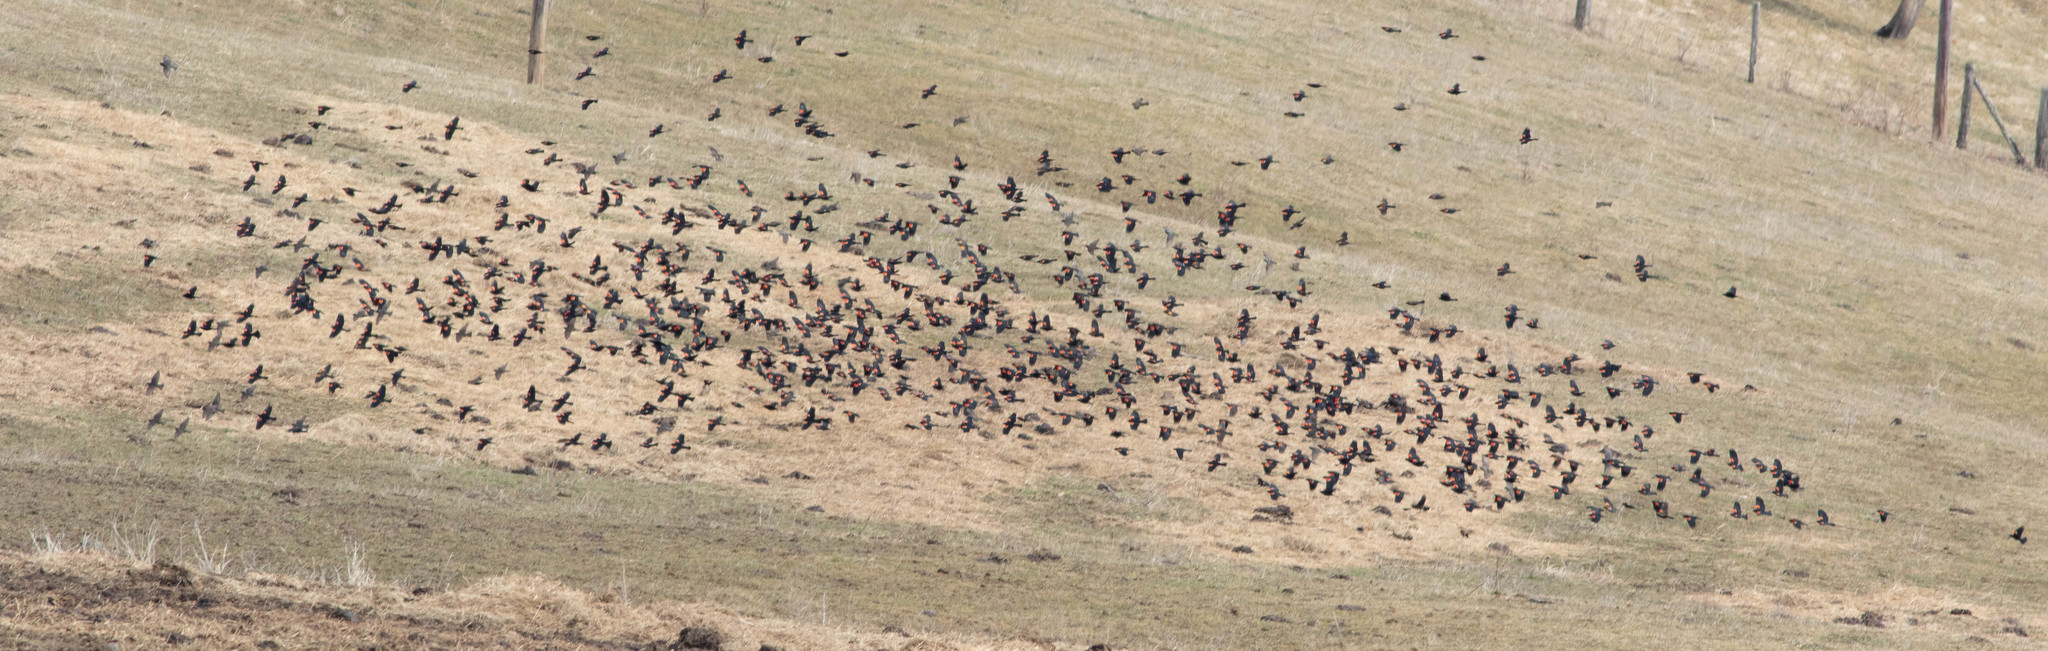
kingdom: Animalia
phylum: Chordata
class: Aves
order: Passeriformes
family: Icteridae
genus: Agelaius
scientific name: Agelaius phoeniceus
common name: Red-winged blackbird
